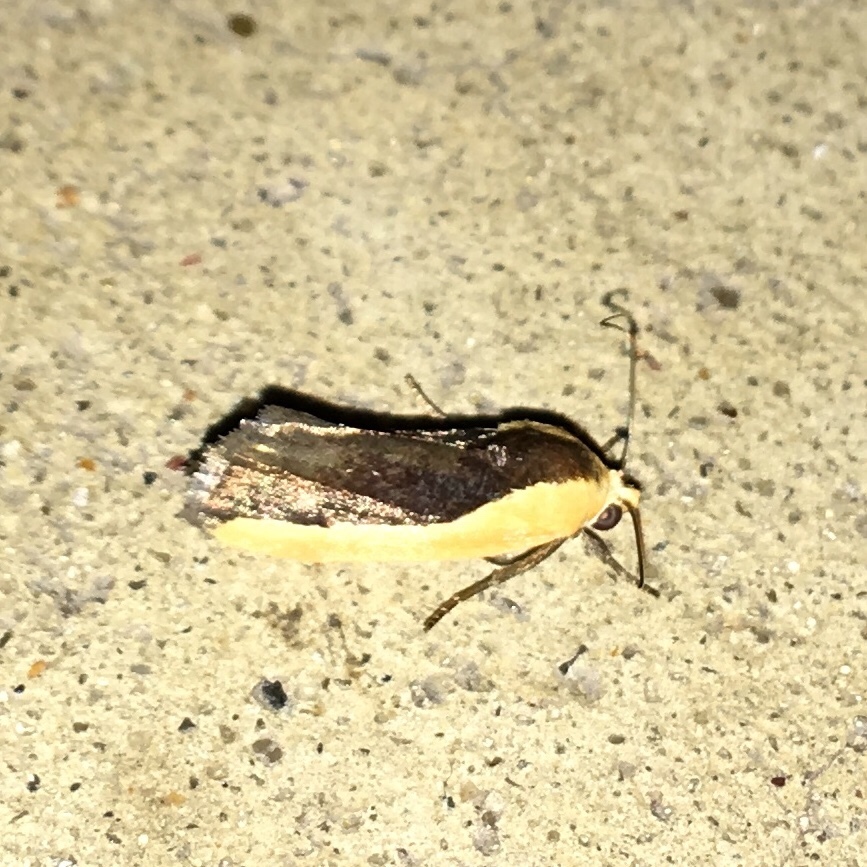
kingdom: Animalia
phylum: Arthropoda
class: Insecta
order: Lepidoptera
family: Noctuidae
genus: Acontia
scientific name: Acontia exigua
